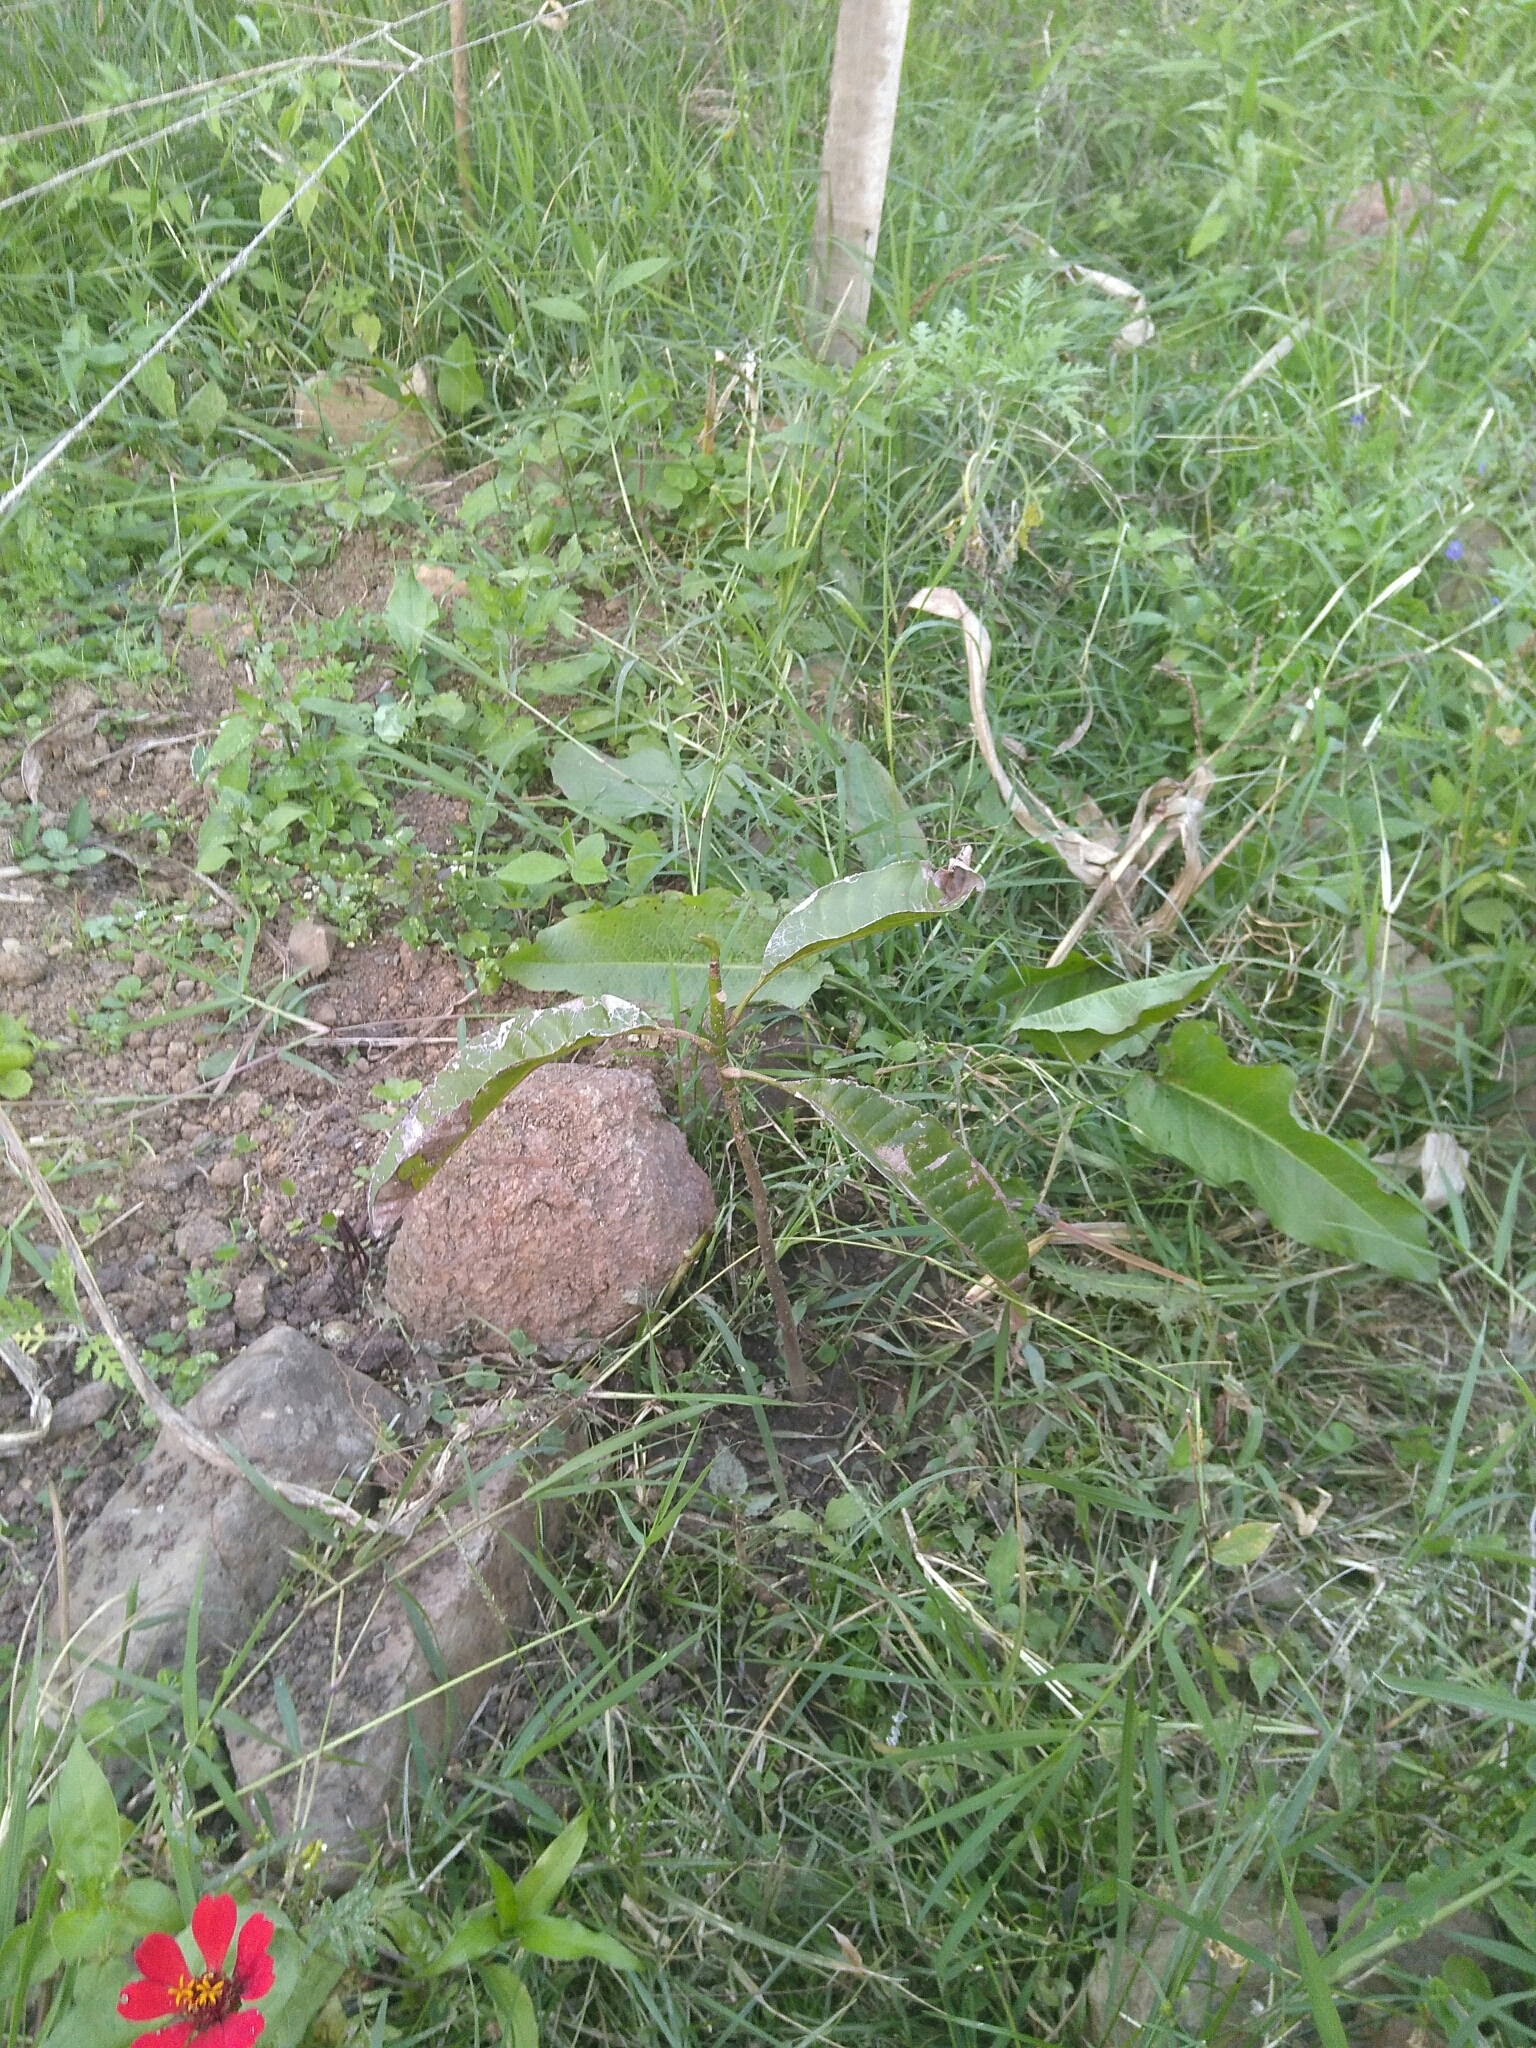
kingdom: Plantae
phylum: Tracheophyta
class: Magnoliopsida
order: Magnoliales
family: Magnoliaceae
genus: Magnolia
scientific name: Magnolia hernandezii
